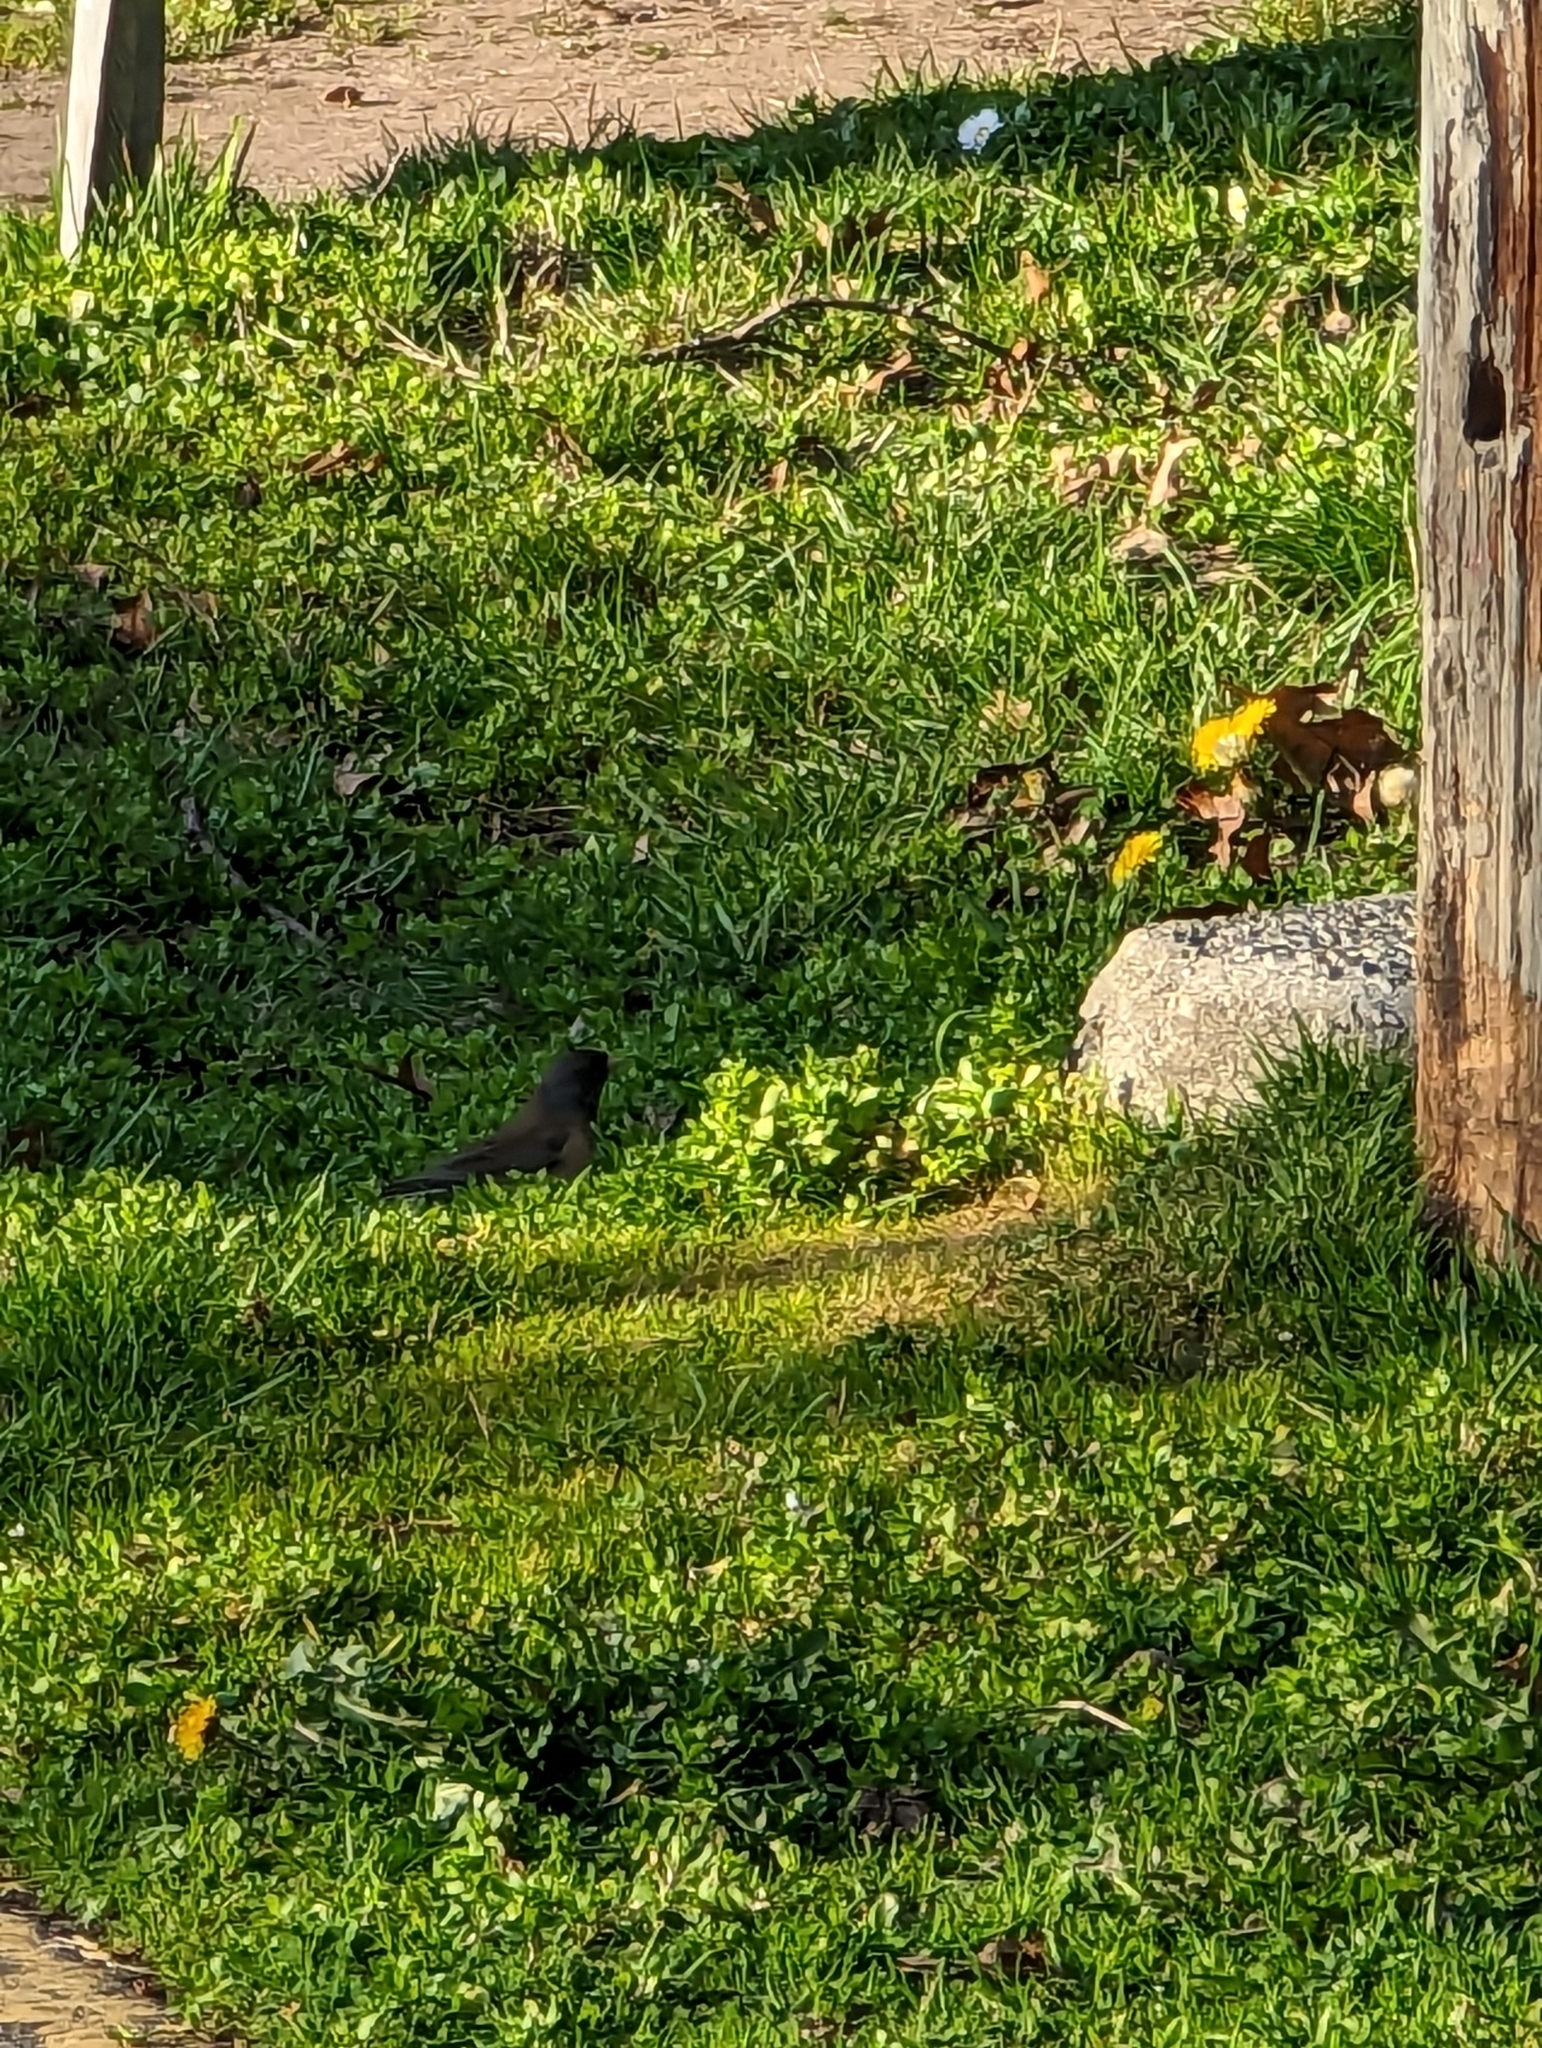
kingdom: Animalia
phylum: Chordata
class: Aves
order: Passeriformes
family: Passerellidae
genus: Junco
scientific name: Junco hyemalis
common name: Dark-eyed junco
